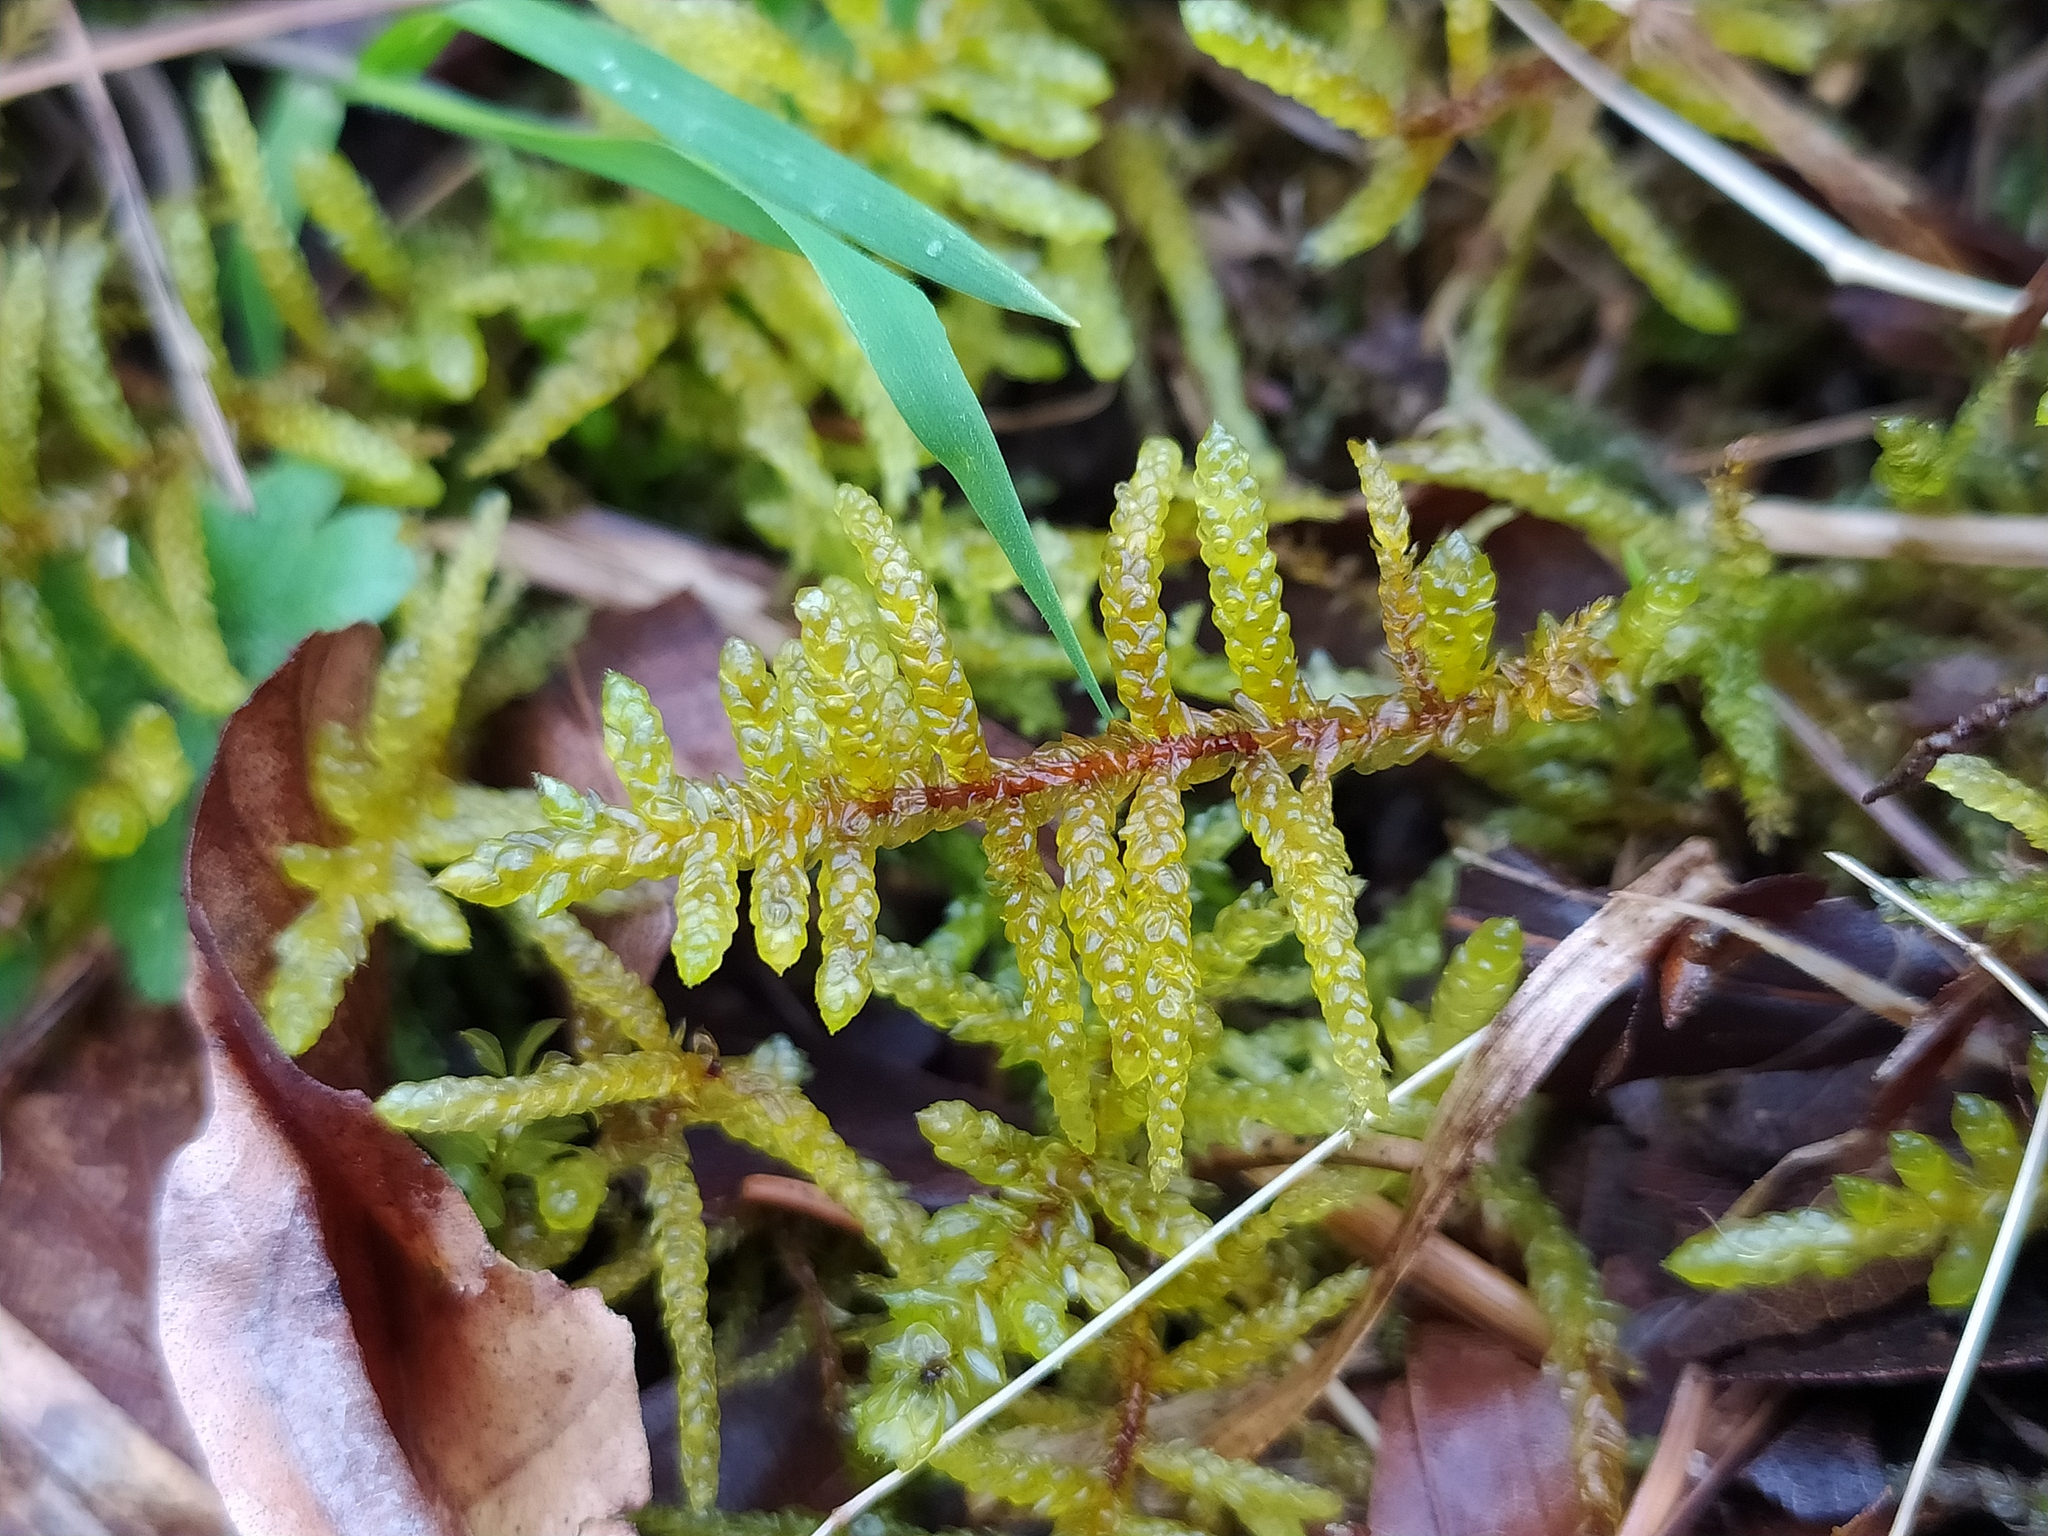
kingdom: Plantae
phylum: Bryophyta
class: Bryopsida
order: Hypnales
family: Brachytheciaceae
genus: Pseudoscleropodium
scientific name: Pseudoscleropodium purum
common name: Neat feather-moss
